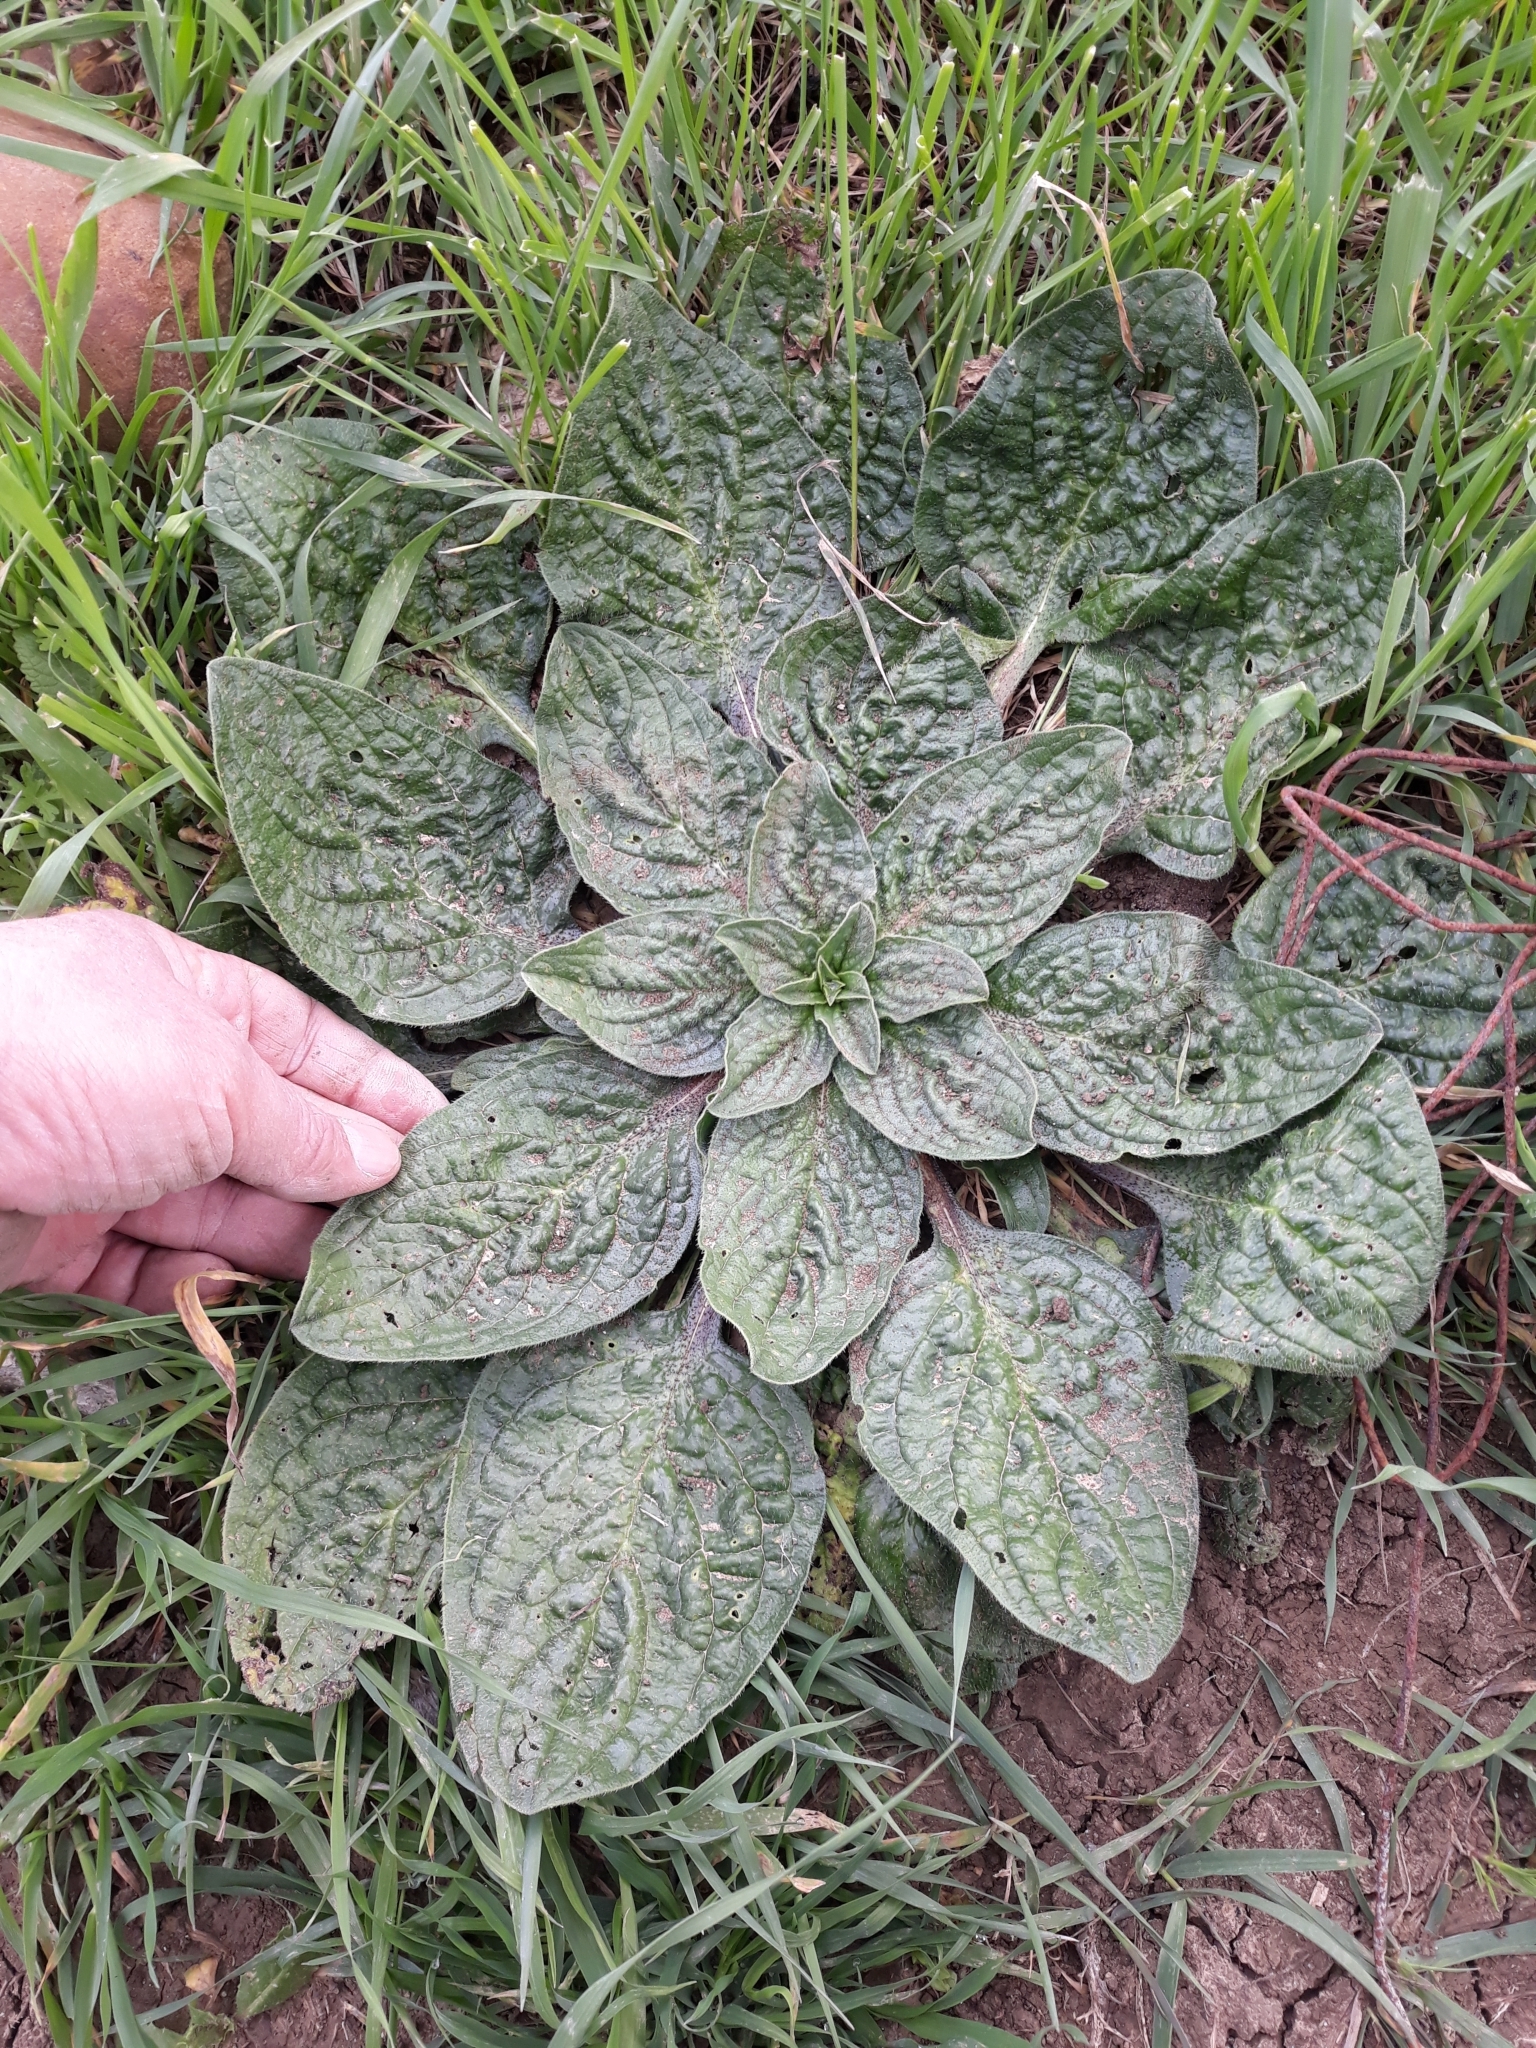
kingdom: Plantae
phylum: Tracheophyta
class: Magnoliopsida
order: Boraginales
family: Boraginaceae
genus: Echium
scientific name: Echium plantagineum
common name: Purple viper's-bugloss
